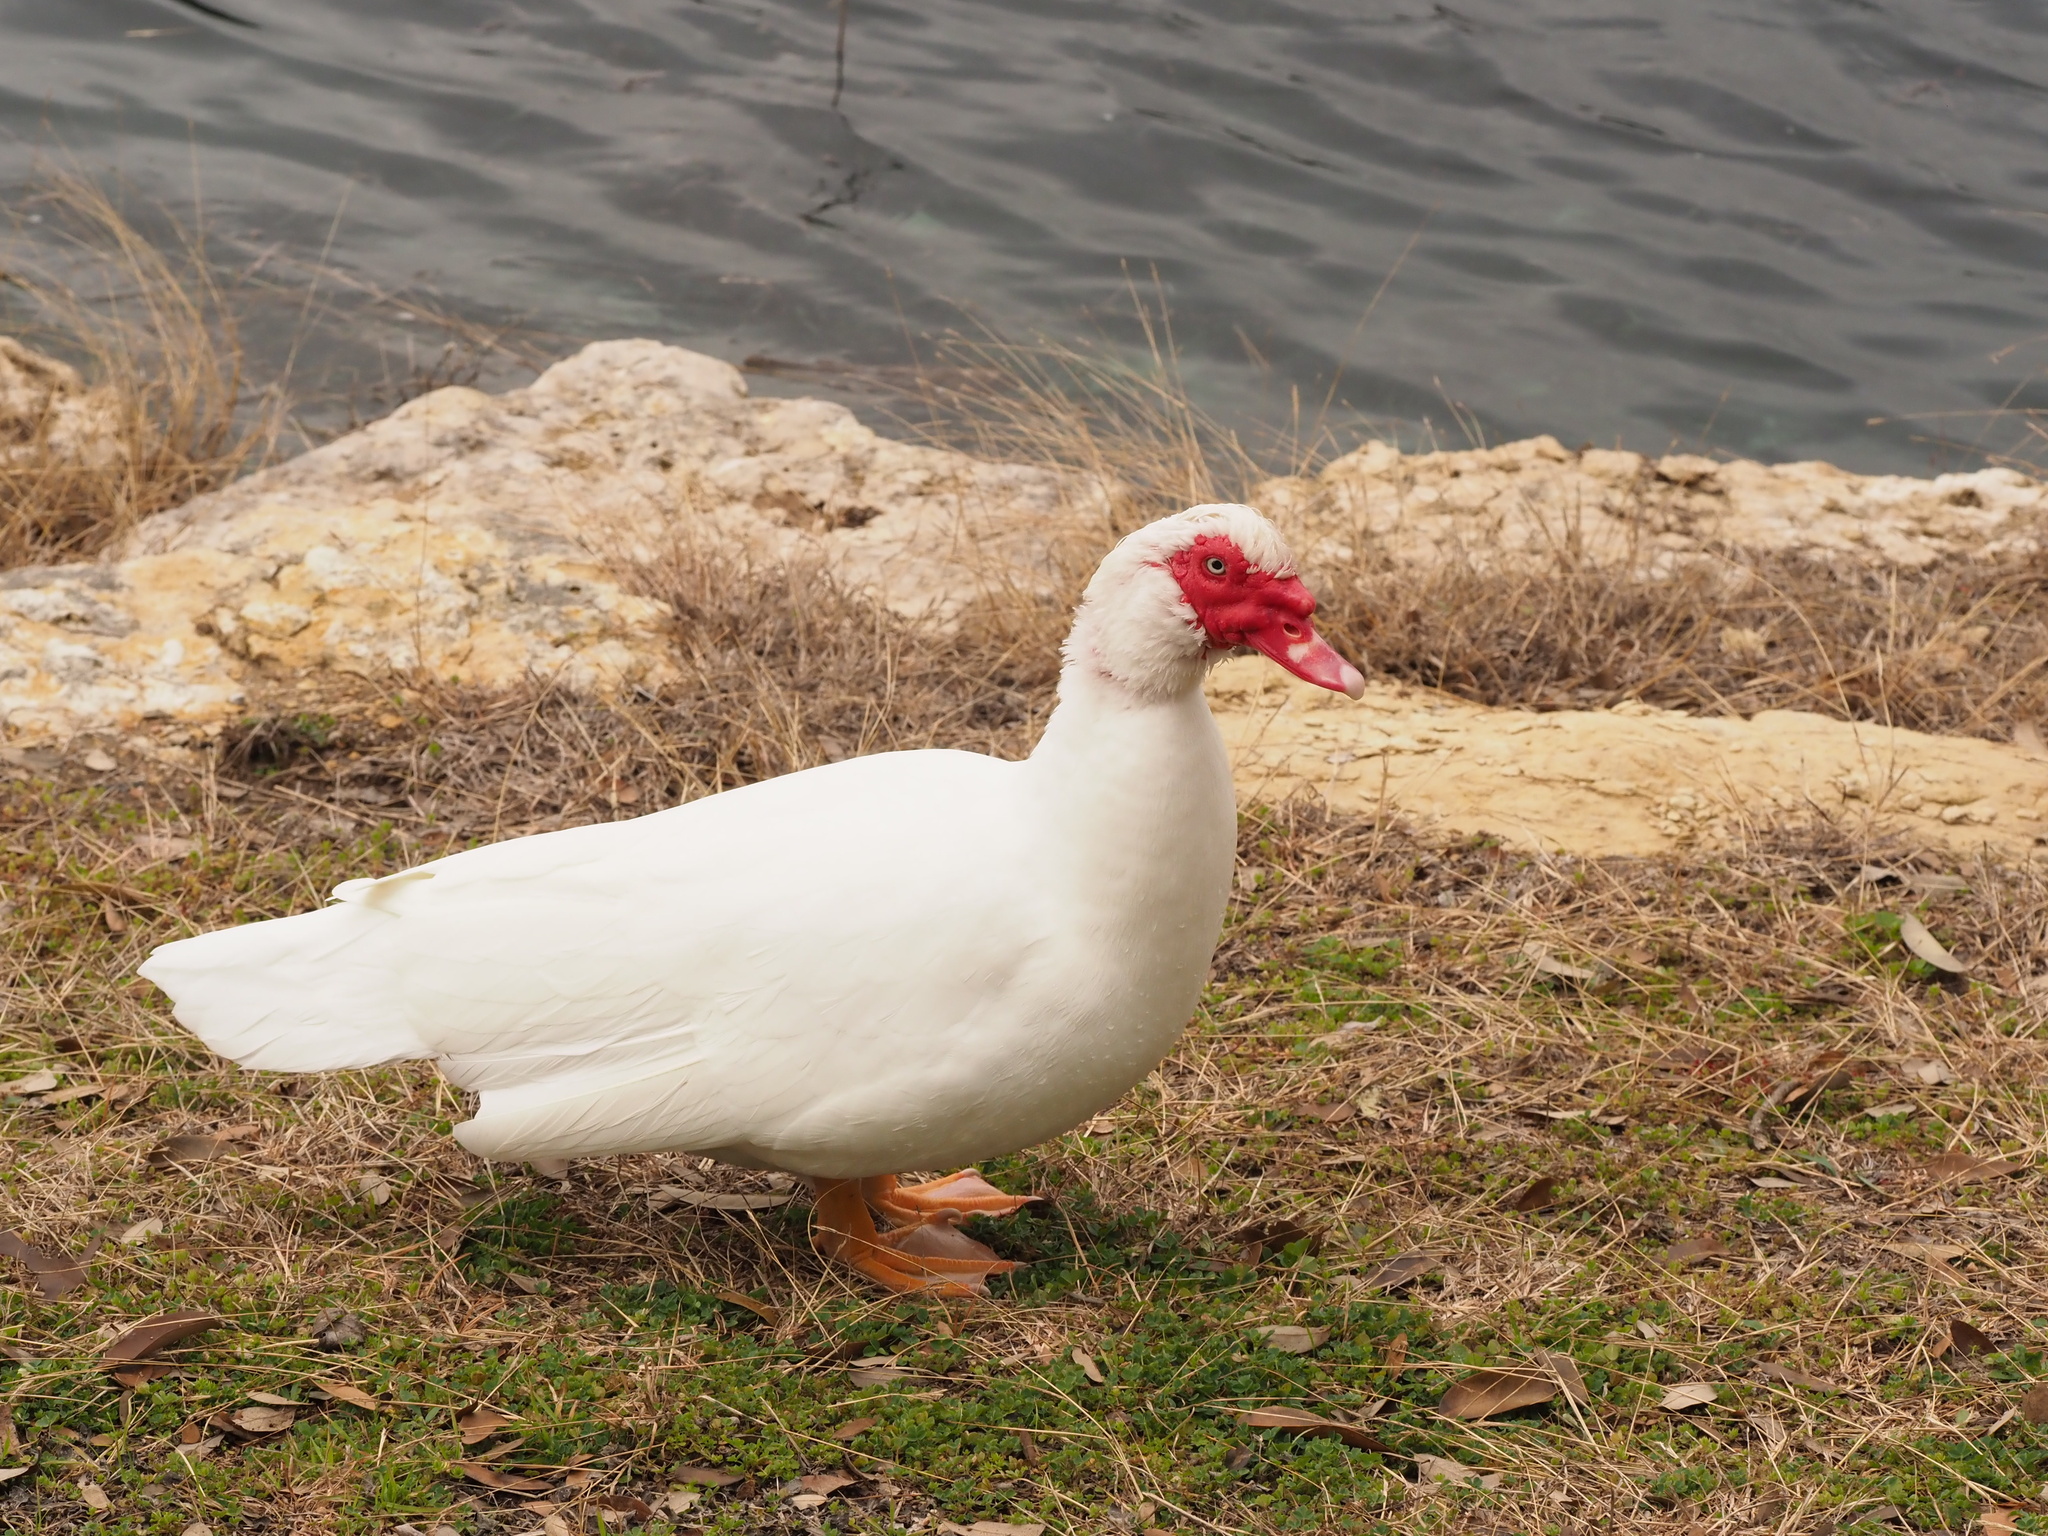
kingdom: Animalia
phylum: Chordata
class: Aves
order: Anseriformes
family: Anatidae
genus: Cairina
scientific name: Cairina moschata
